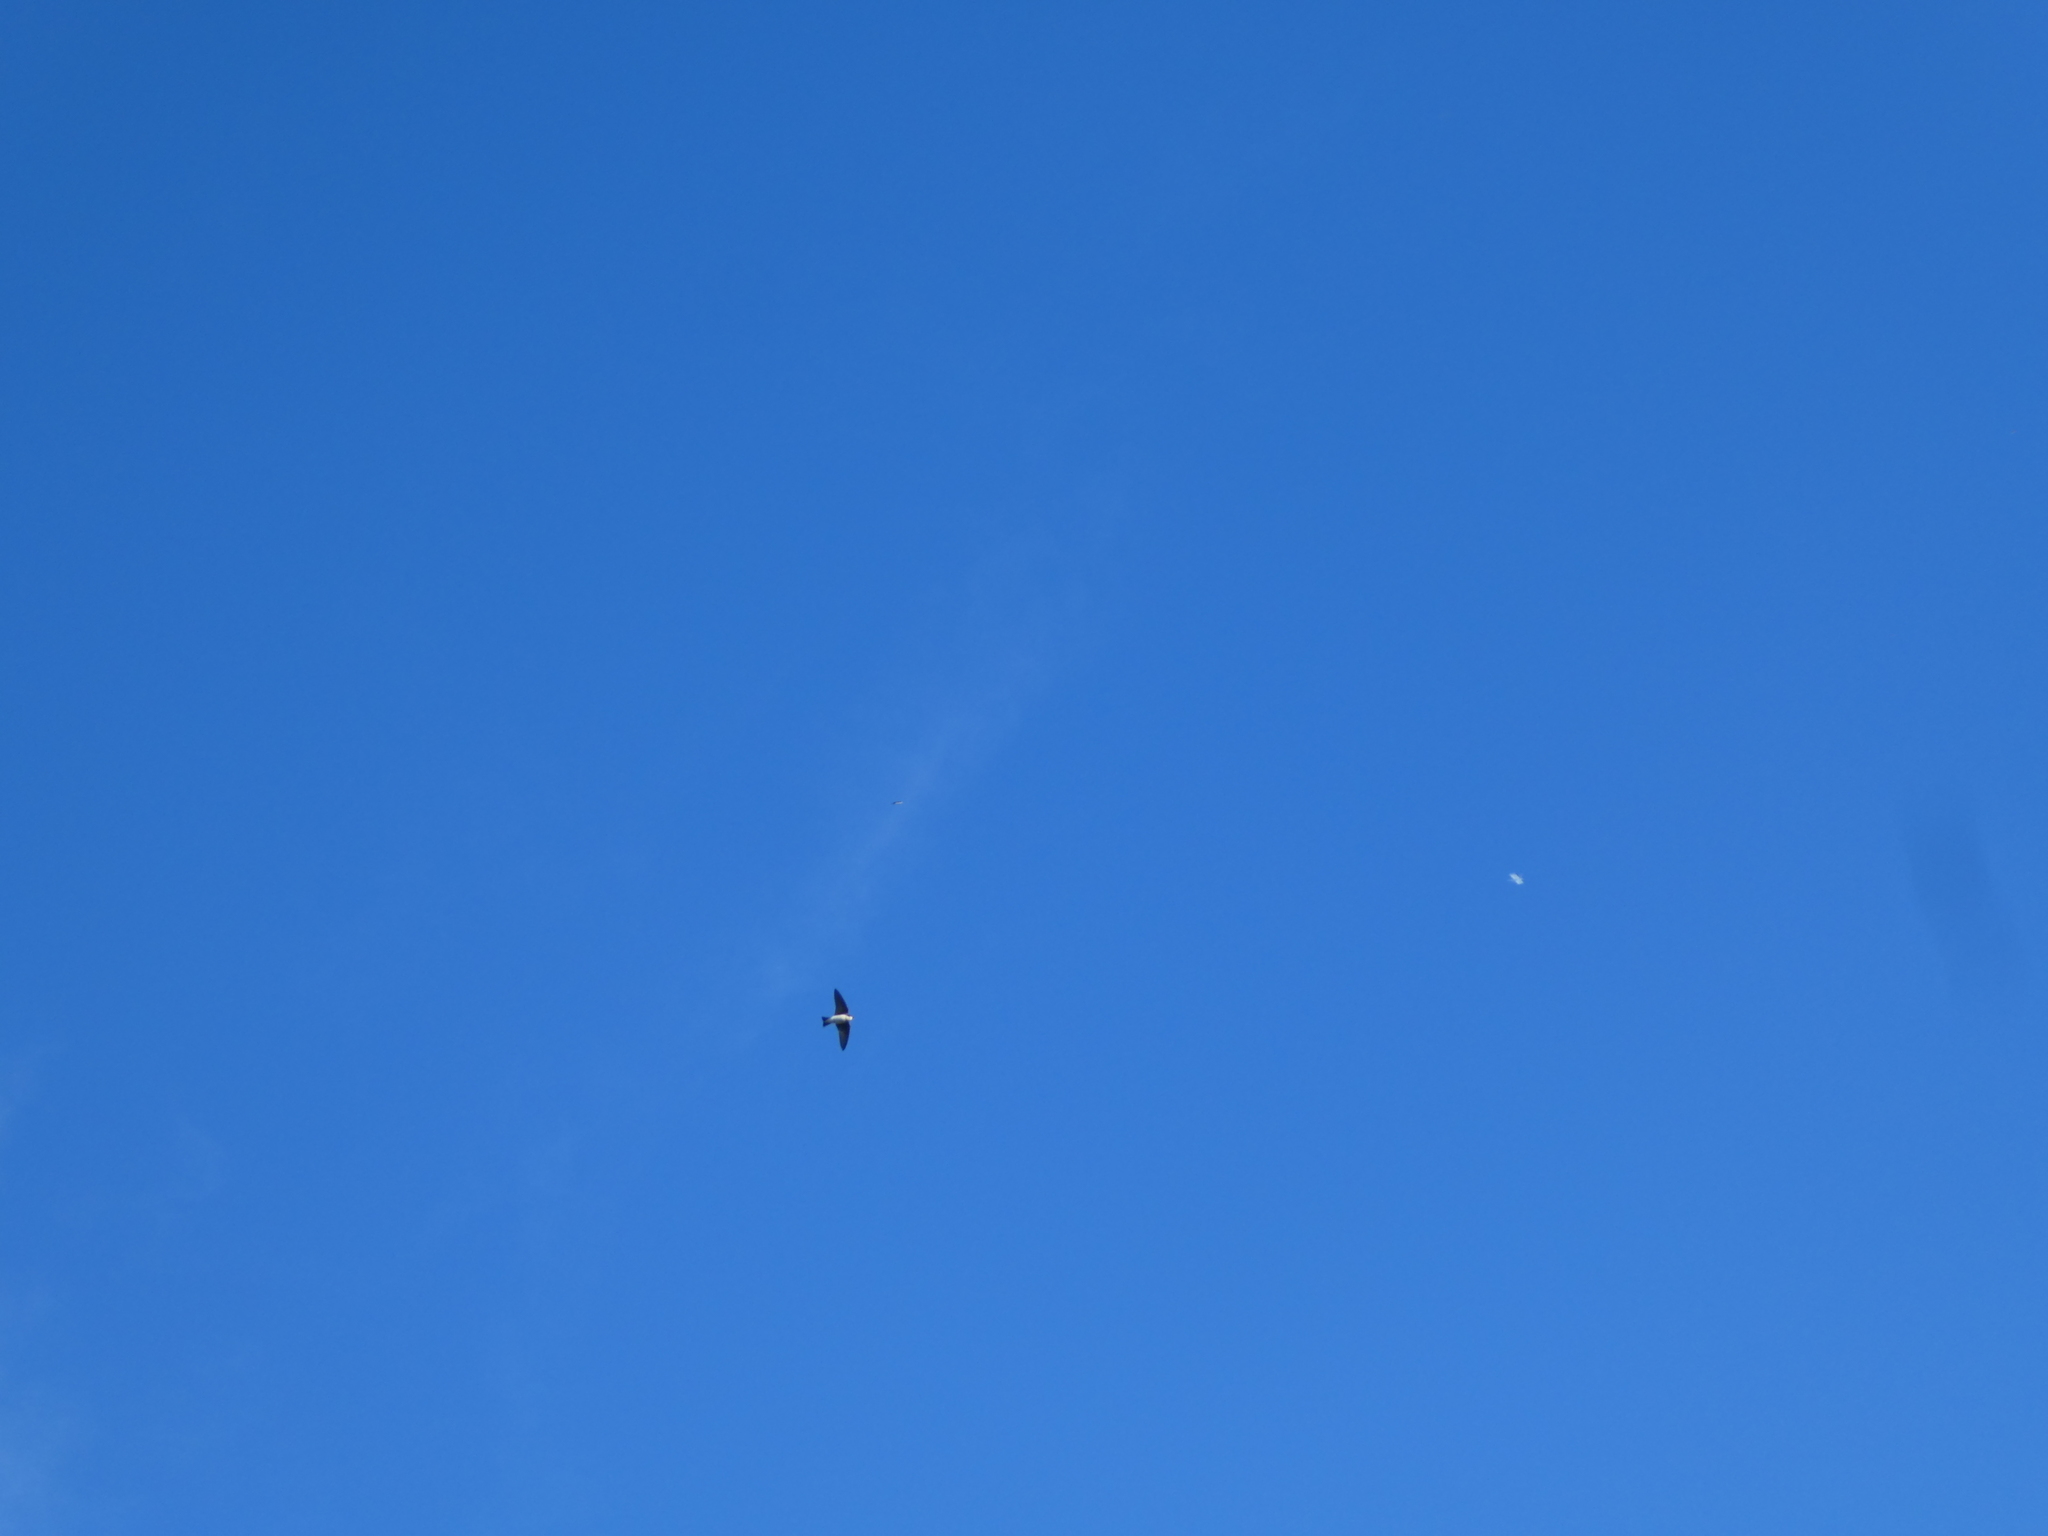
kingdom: Animalia
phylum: Chordata
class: Aves
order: Passeriformes
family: Hirundinidae
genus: Tachycineta
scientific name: Tachycineta bicolor
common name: Tree swallow
